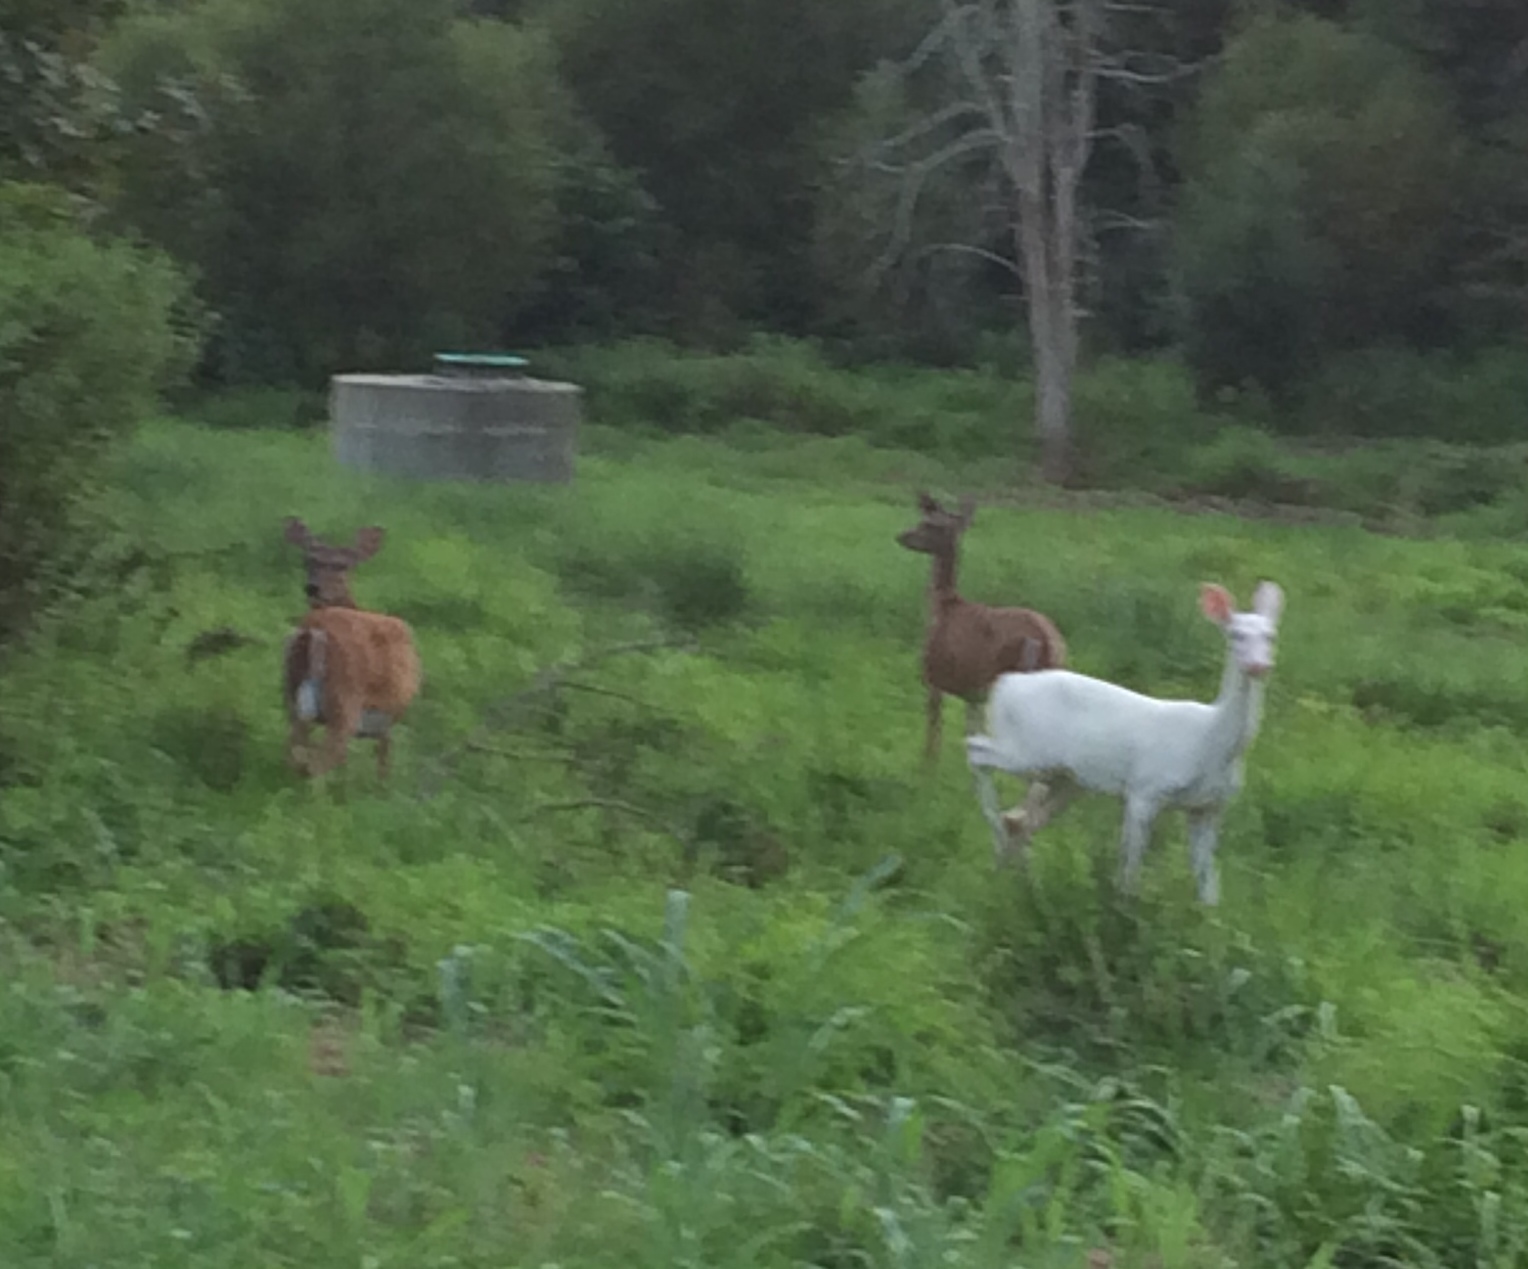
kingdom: Animalia
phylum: Chordata
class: Mammalia
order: Artiodactyla
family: Cervidae
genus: Odocoileus
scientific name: Odocoileus virginianus
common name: White-tailed deer
